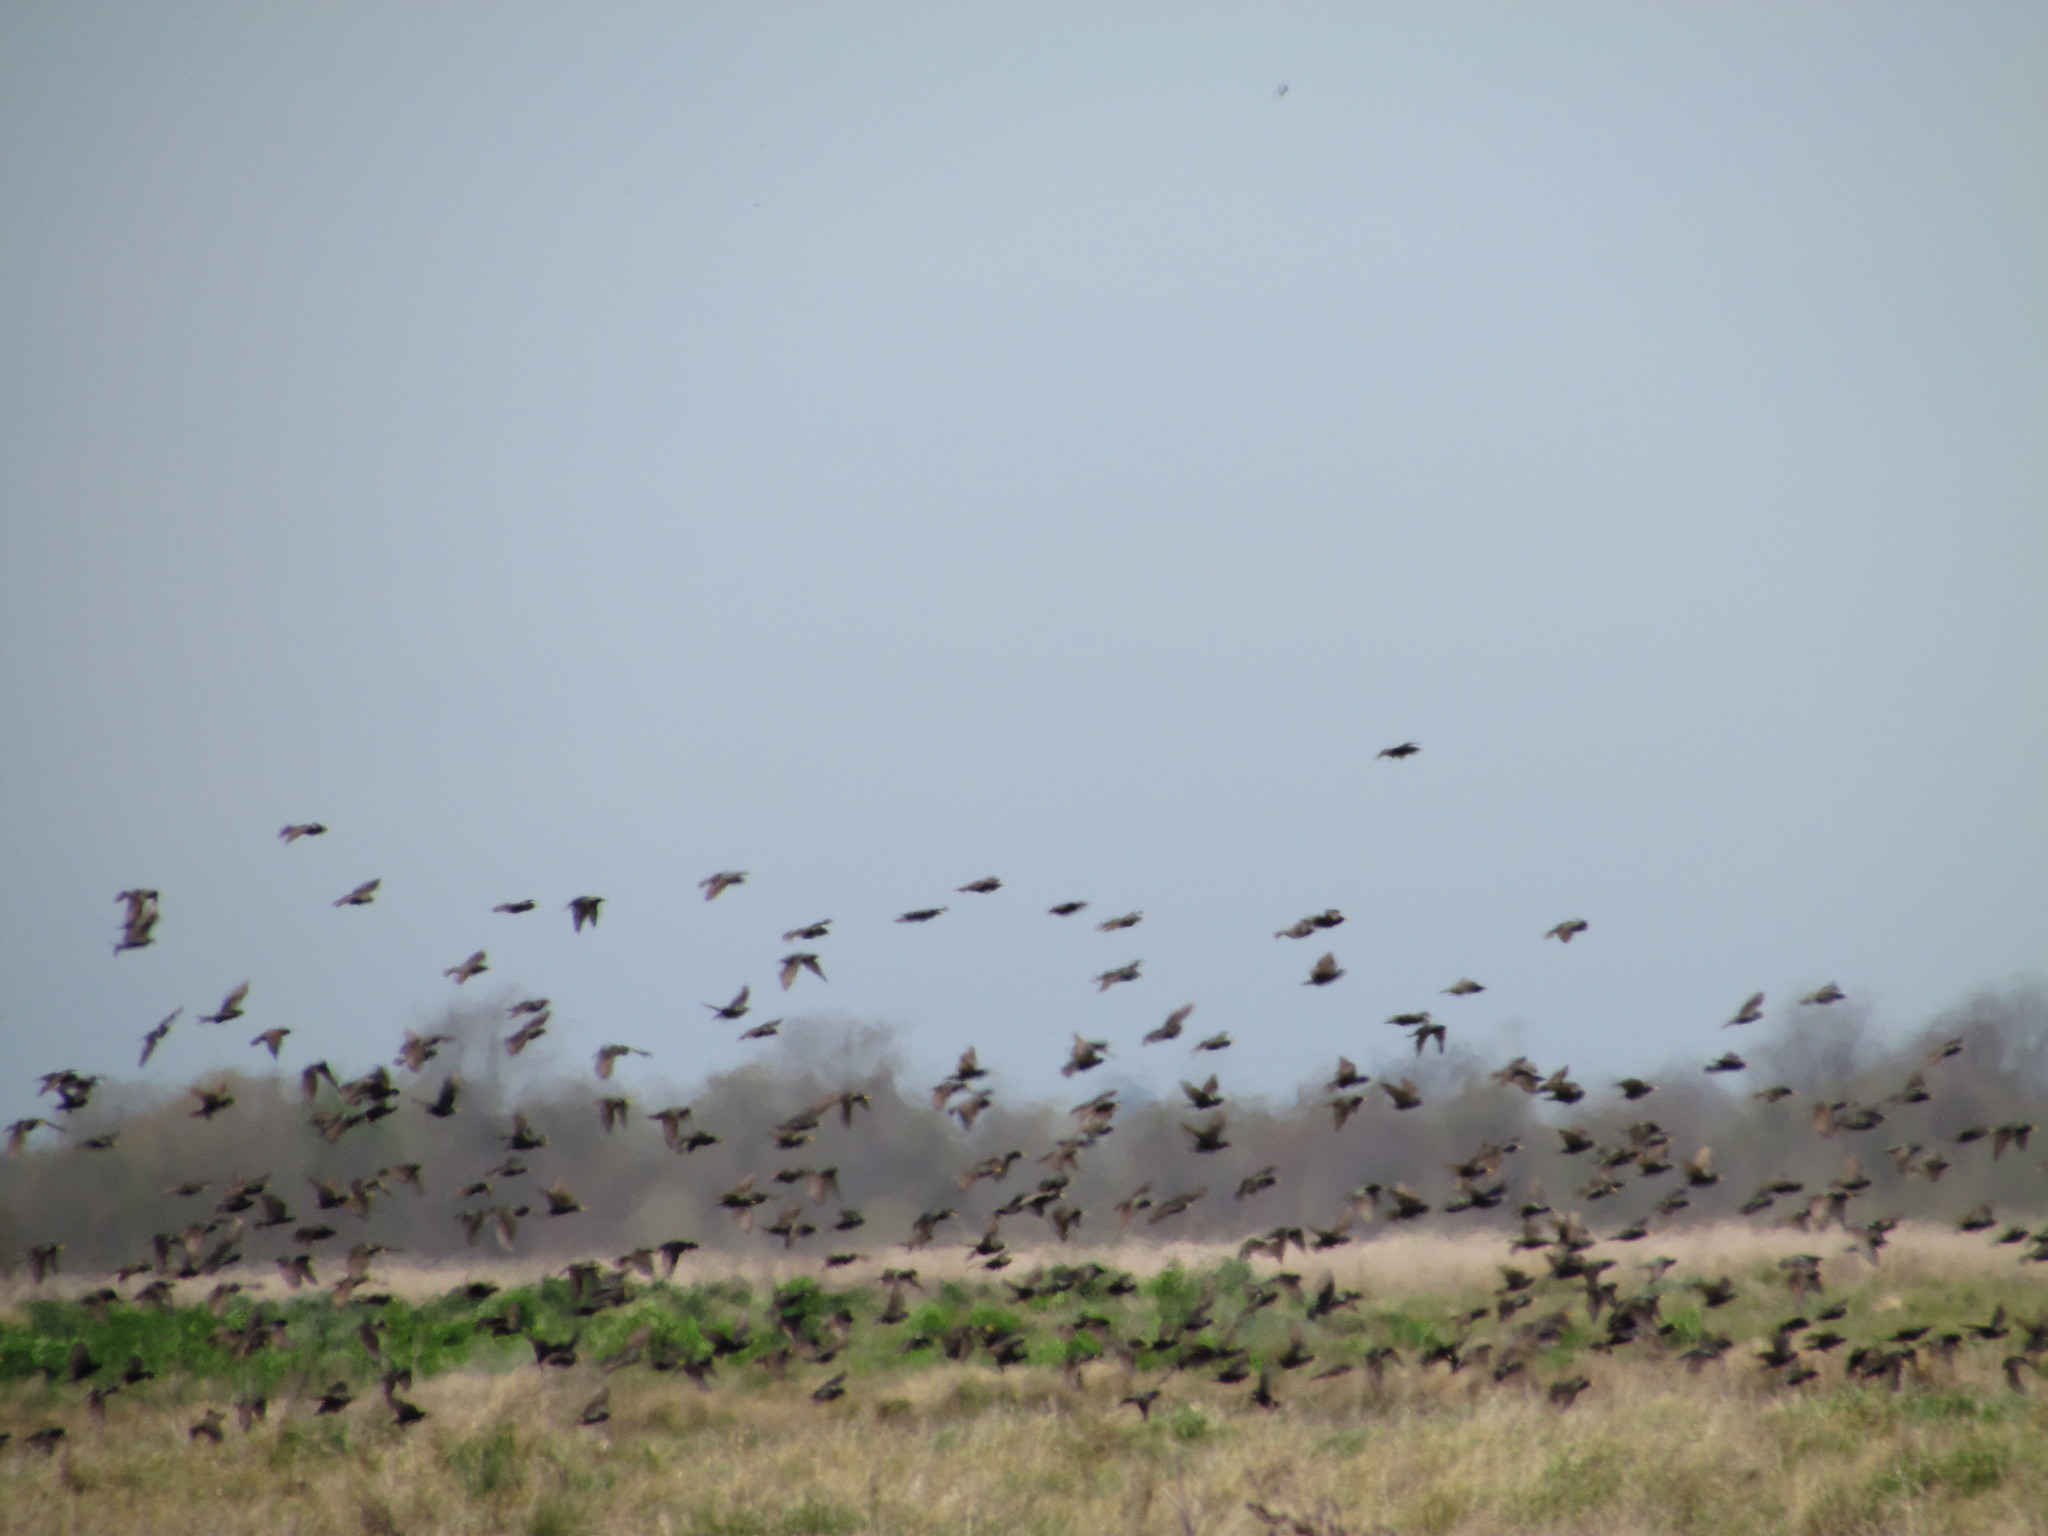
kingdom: Animalia
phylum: Chordata
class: Aves
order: Passeriformes
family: Sturnidae
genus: Sturnus
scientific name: Sturnus vulgaris
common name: Common starling
